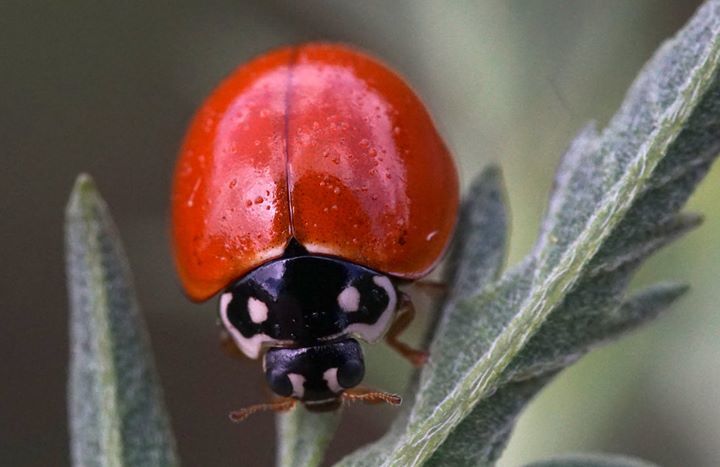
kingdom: Animalia
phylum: Arthropoda
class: Insecta
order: Coleoptera
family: Coccinellidae
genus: Cycloneda
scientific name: Cycloneda sanguinea
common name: Ladybird beetle
